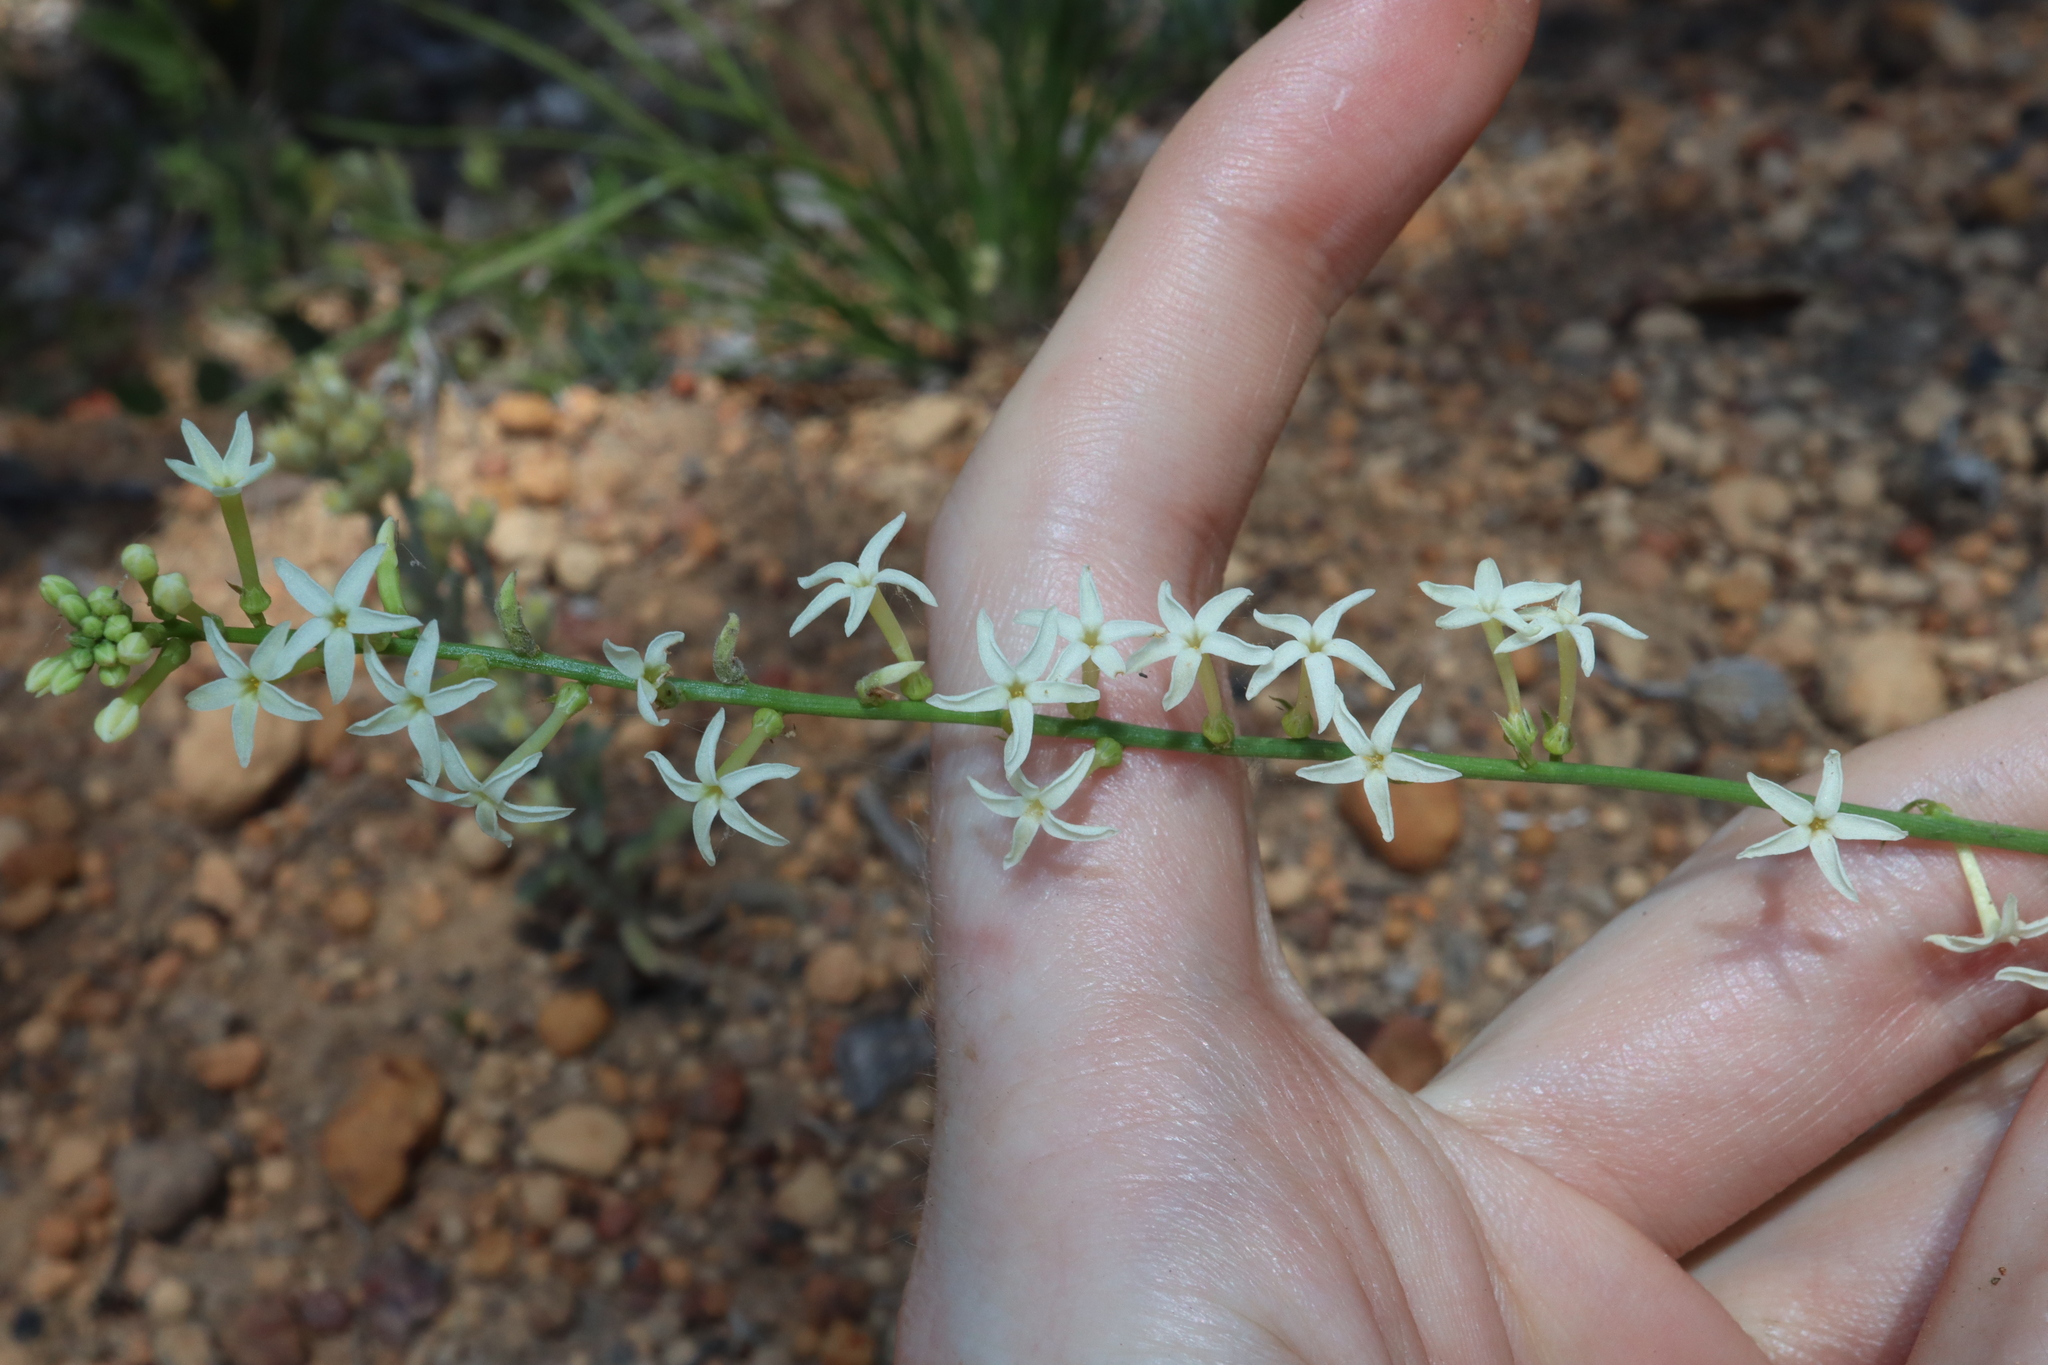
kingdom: Plantae
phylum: Tracheophyta
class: Magnoliopsida
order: Celastrales
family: Celastraceae
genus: Stackhousia
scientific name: Stackhousia monogyna
